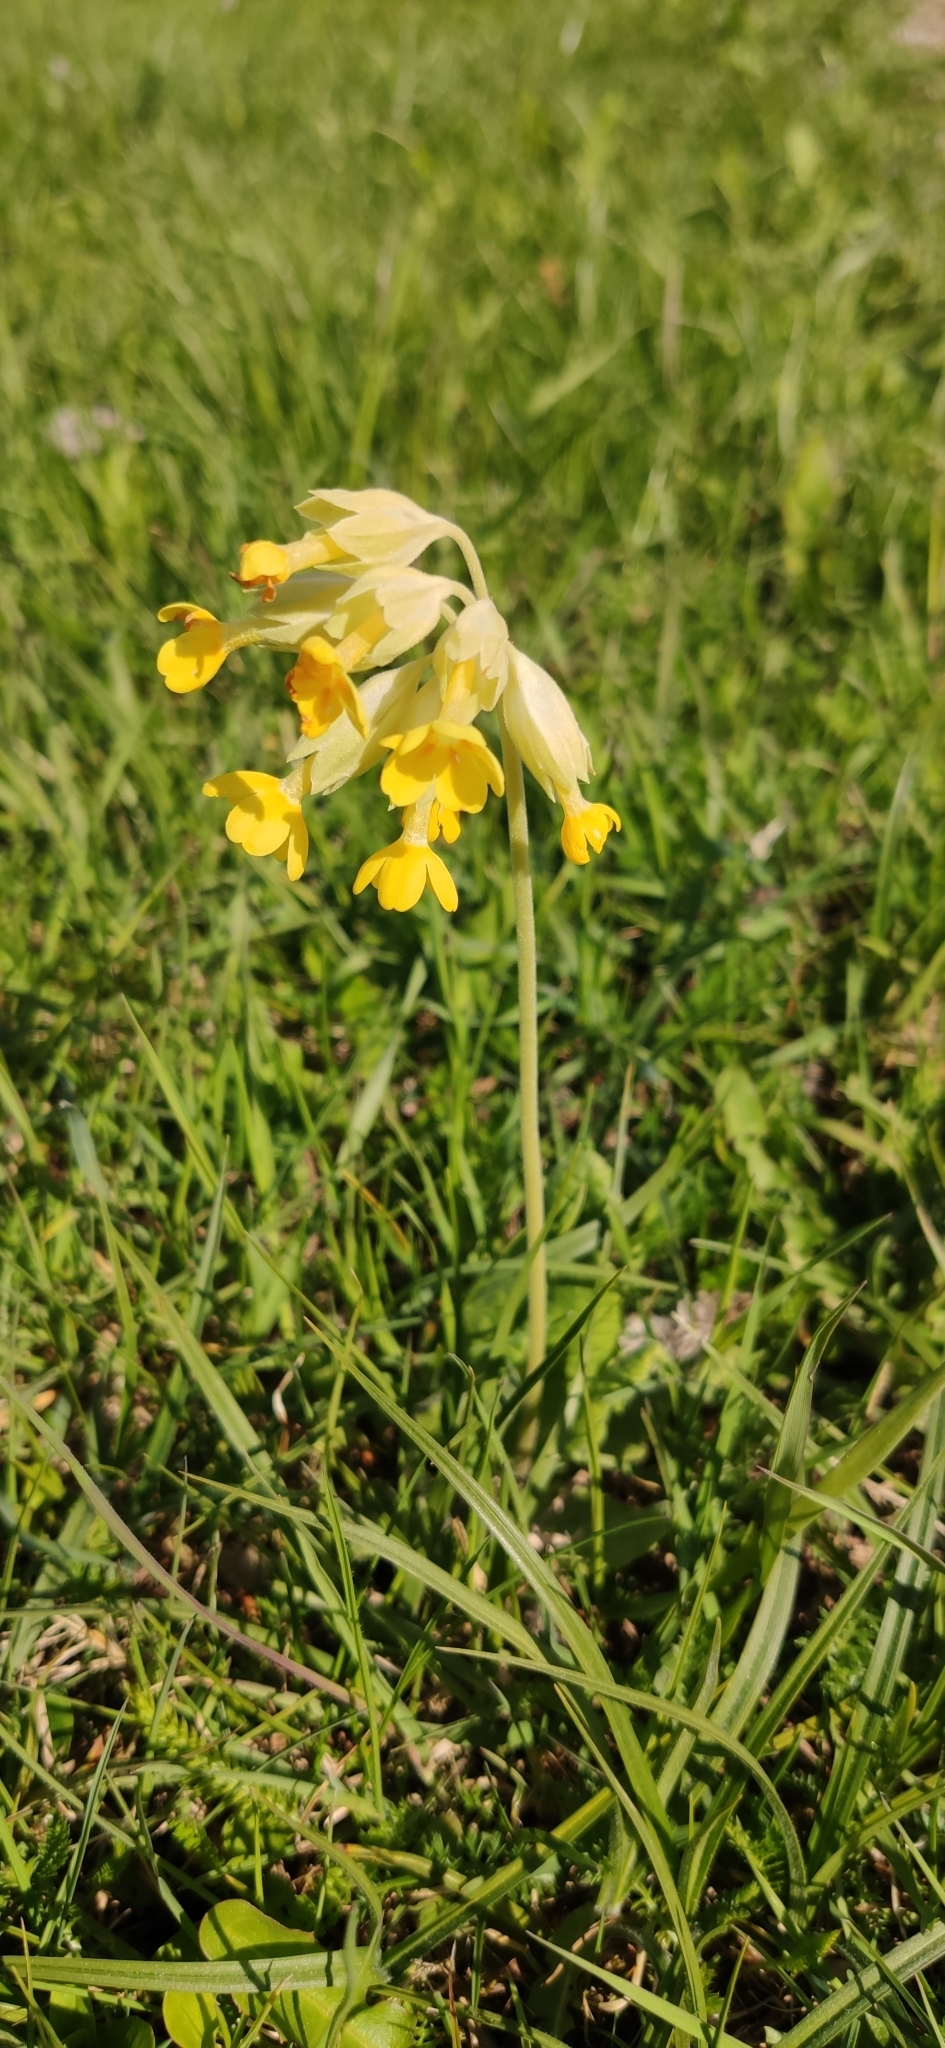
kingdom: Plantae
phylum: Tracheophyta
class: Magnoliopsida
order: Ericales
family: Primulaceae
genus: Primula
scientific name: Primula veris
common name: Cowslip
